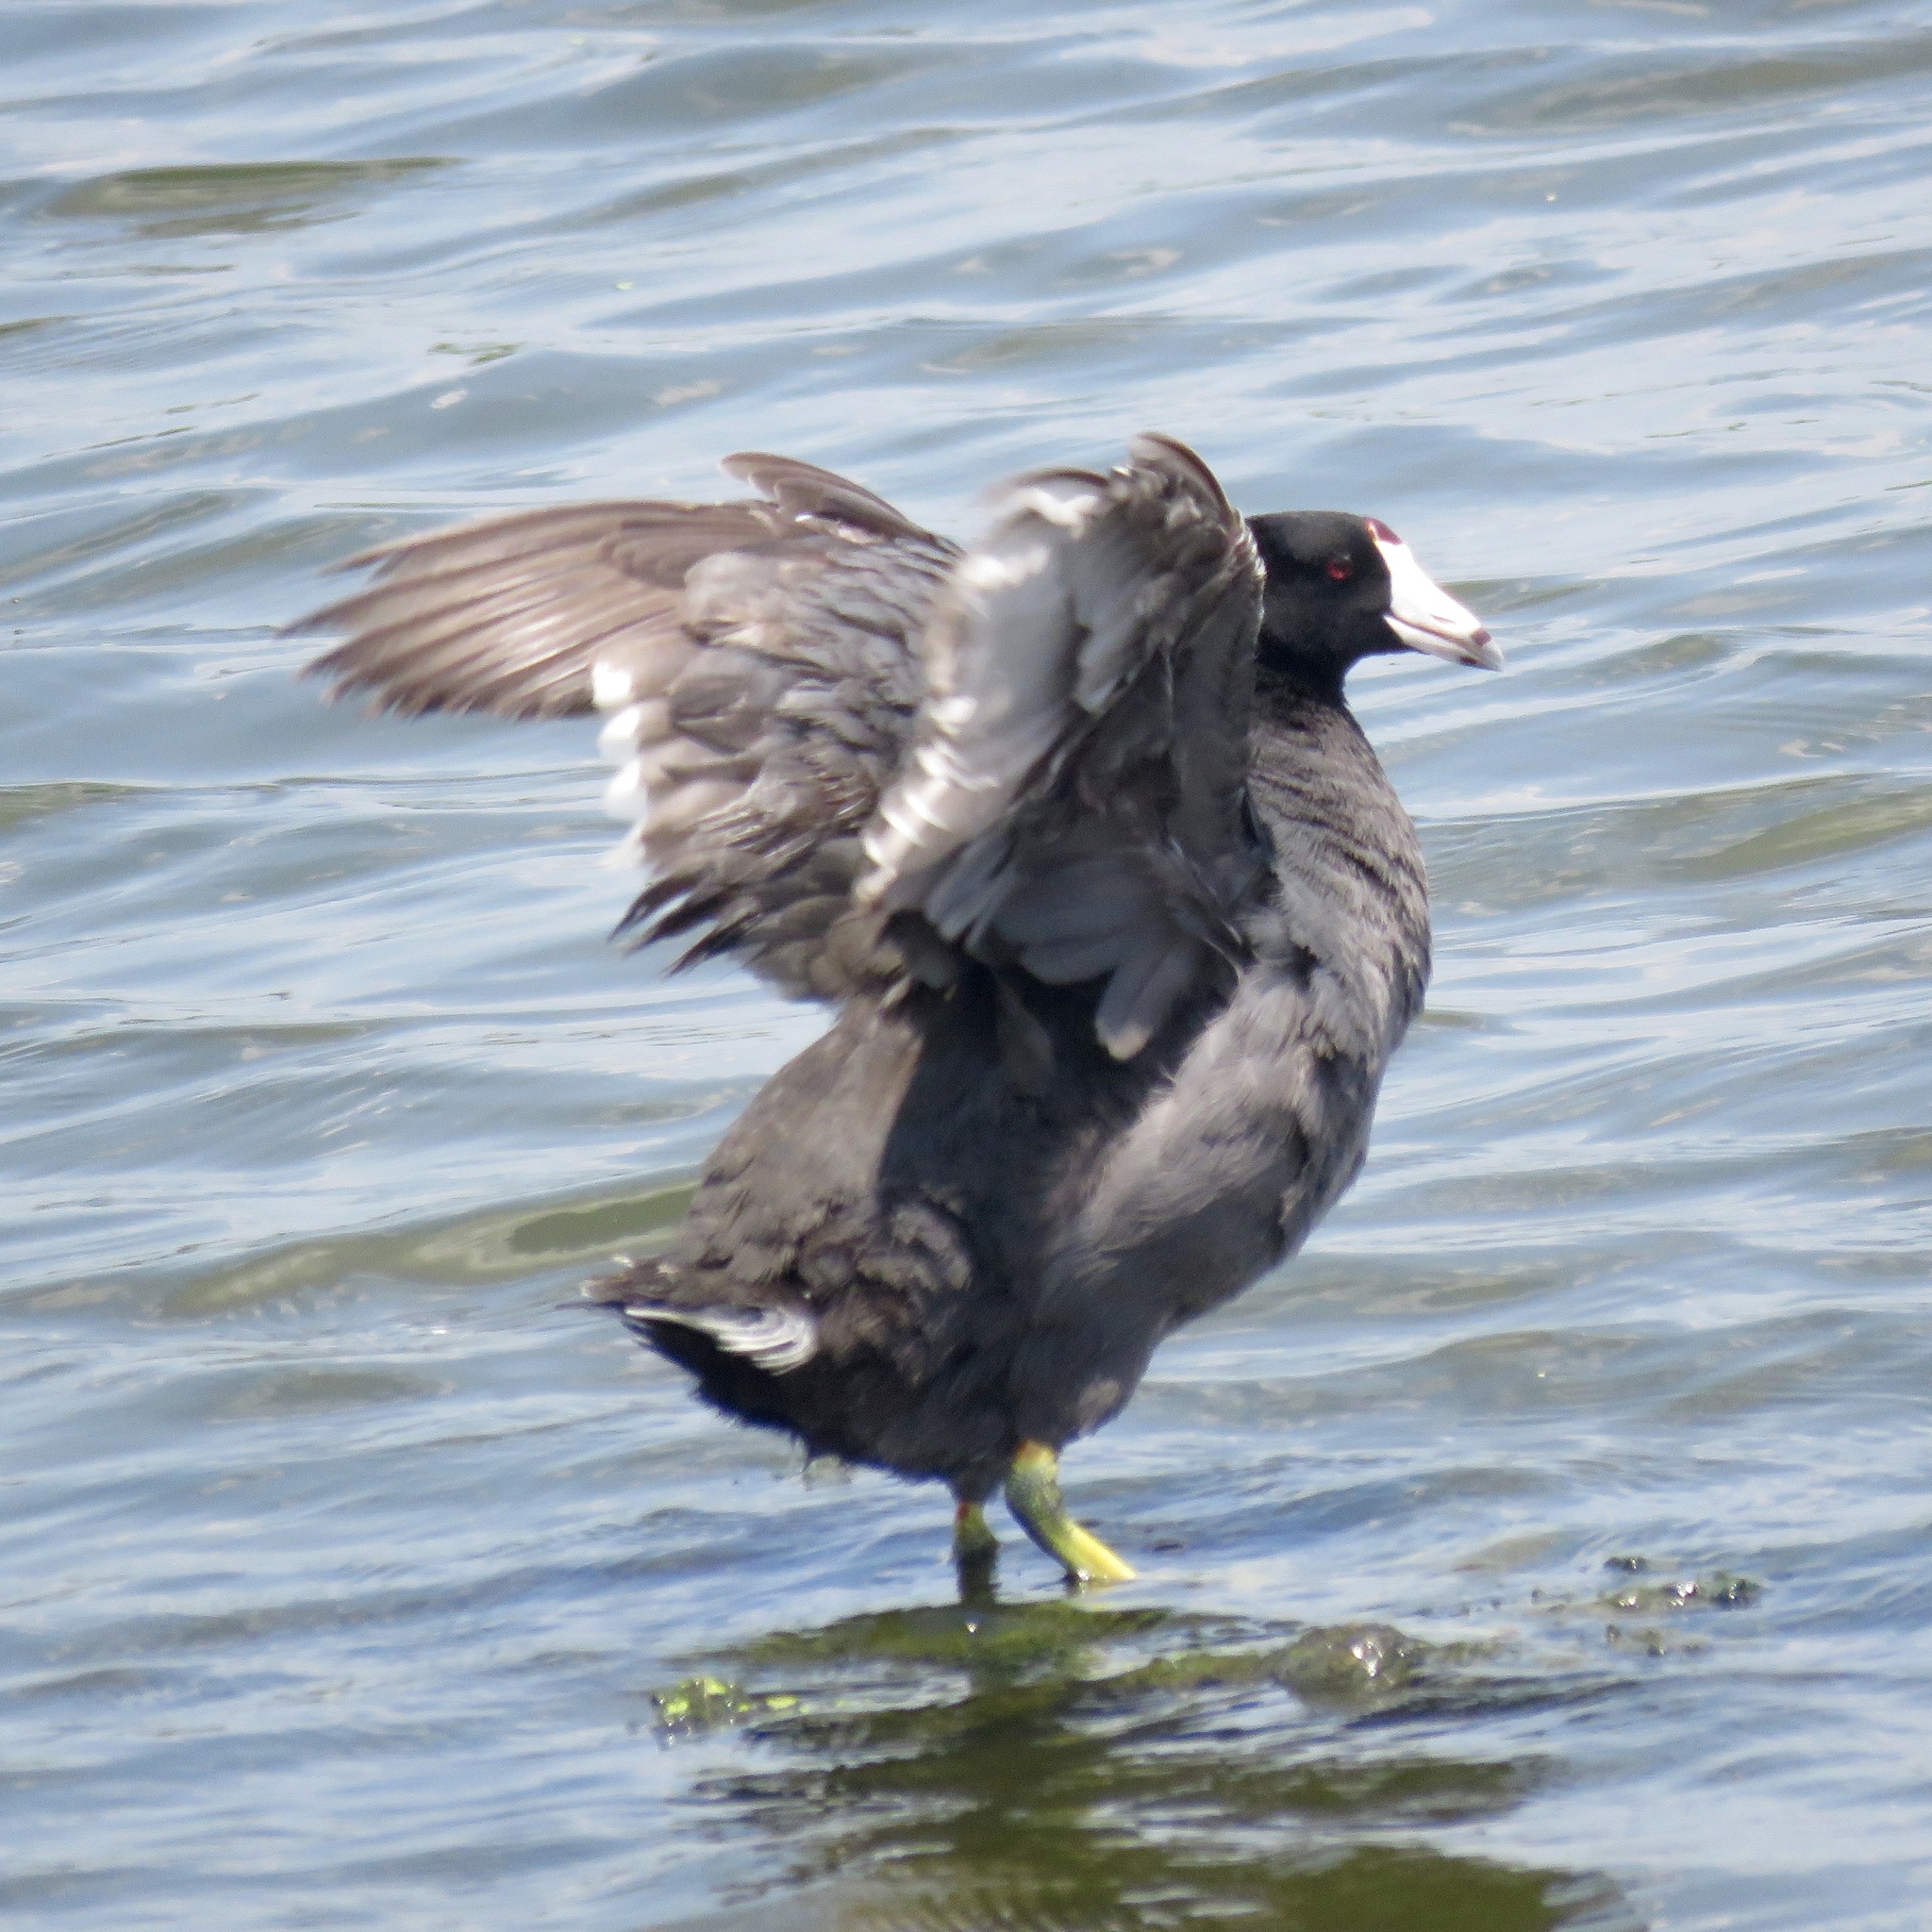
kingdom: Animalia
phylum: Chordata
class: Aves
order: Gruiformes
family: Rallidae
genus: Fulica
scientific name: Fulica americana
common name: American coot
